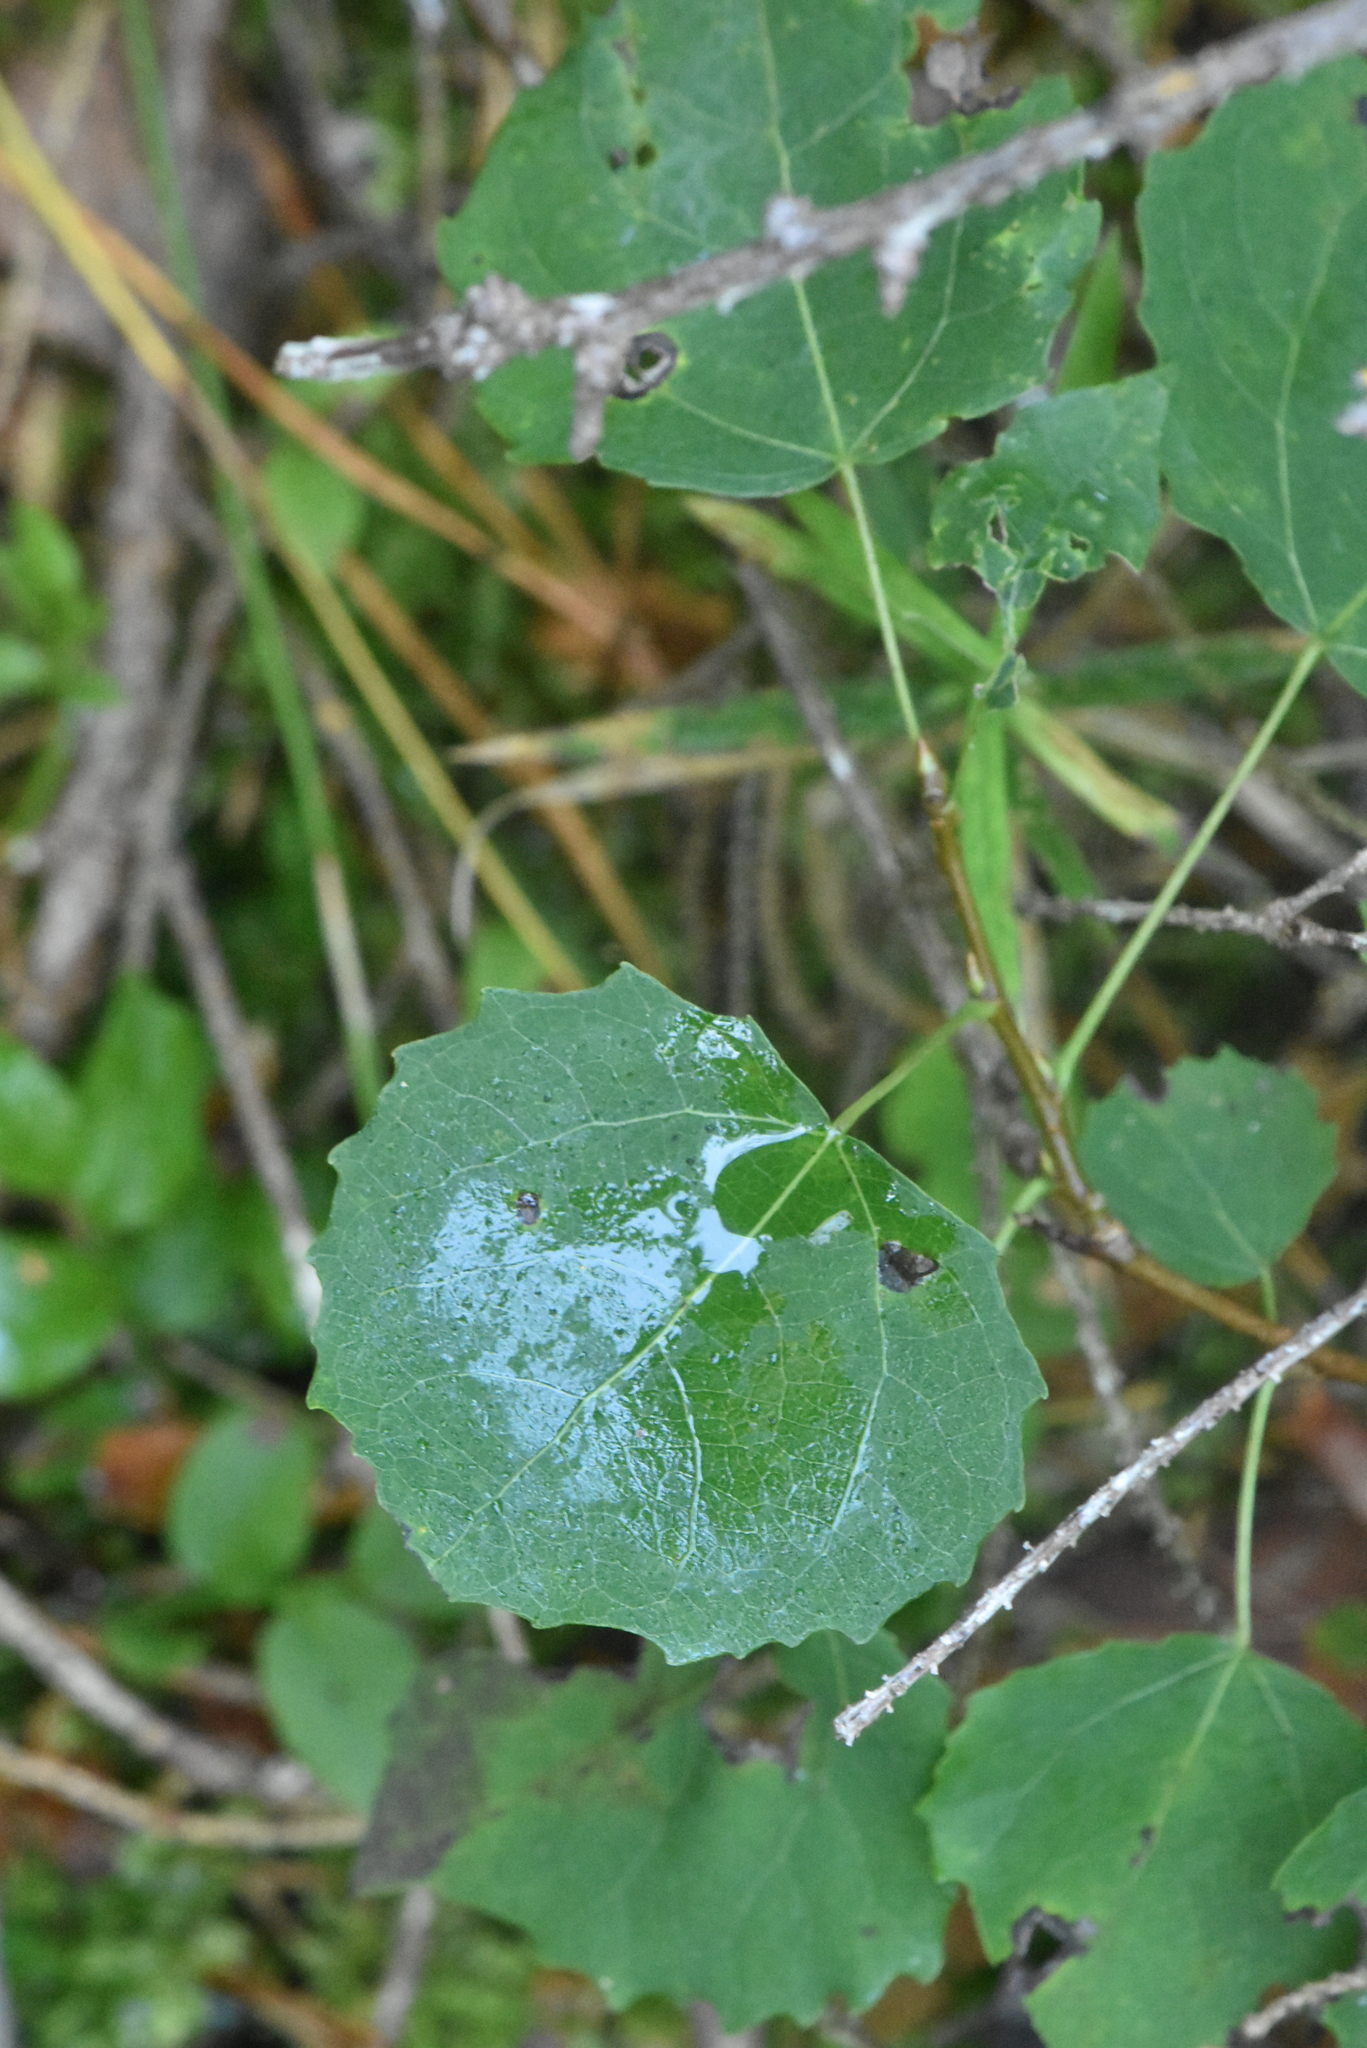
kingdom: Plantae
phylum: Tracheophyta
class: Magnoliopsida
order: Malpighiales
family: Salicaceae
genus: Populus
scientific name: Populus tremula
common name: European aspen
